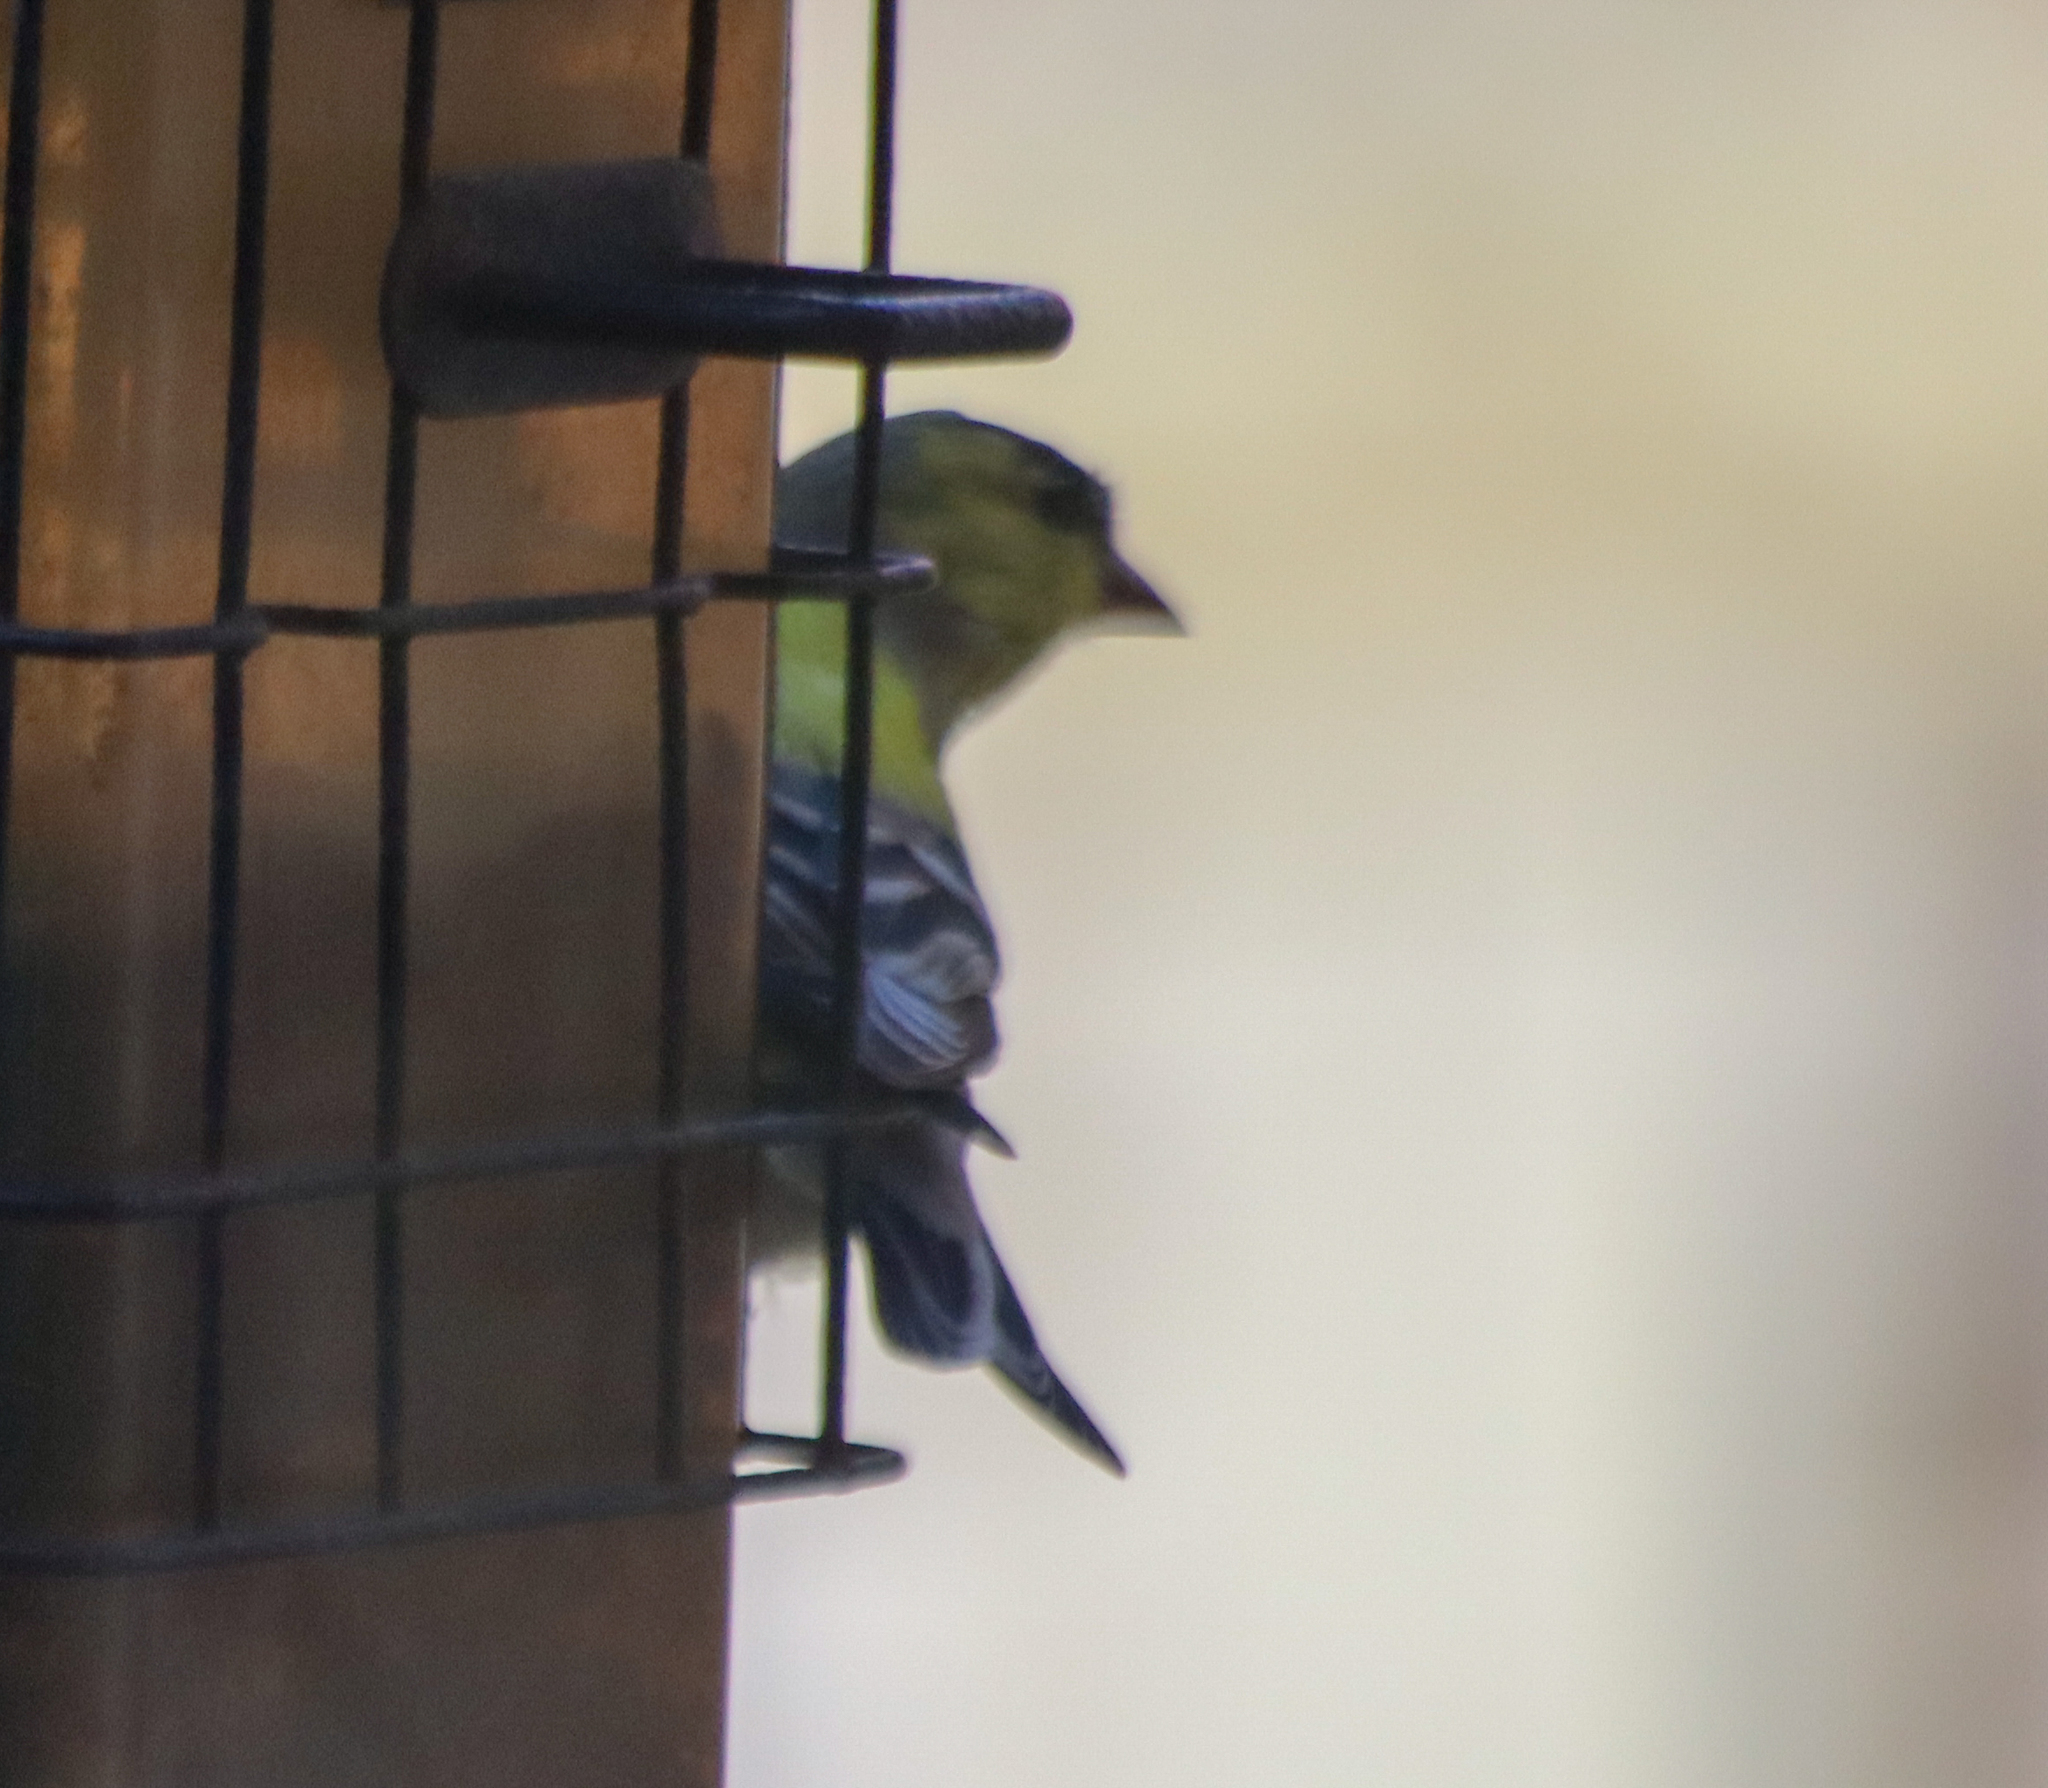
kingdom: Animalia
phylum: Chordata
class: Aves
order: Passeriformes
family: Fringillidae
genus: Spinus
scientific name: Spinus tristis
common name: American goldfinch
